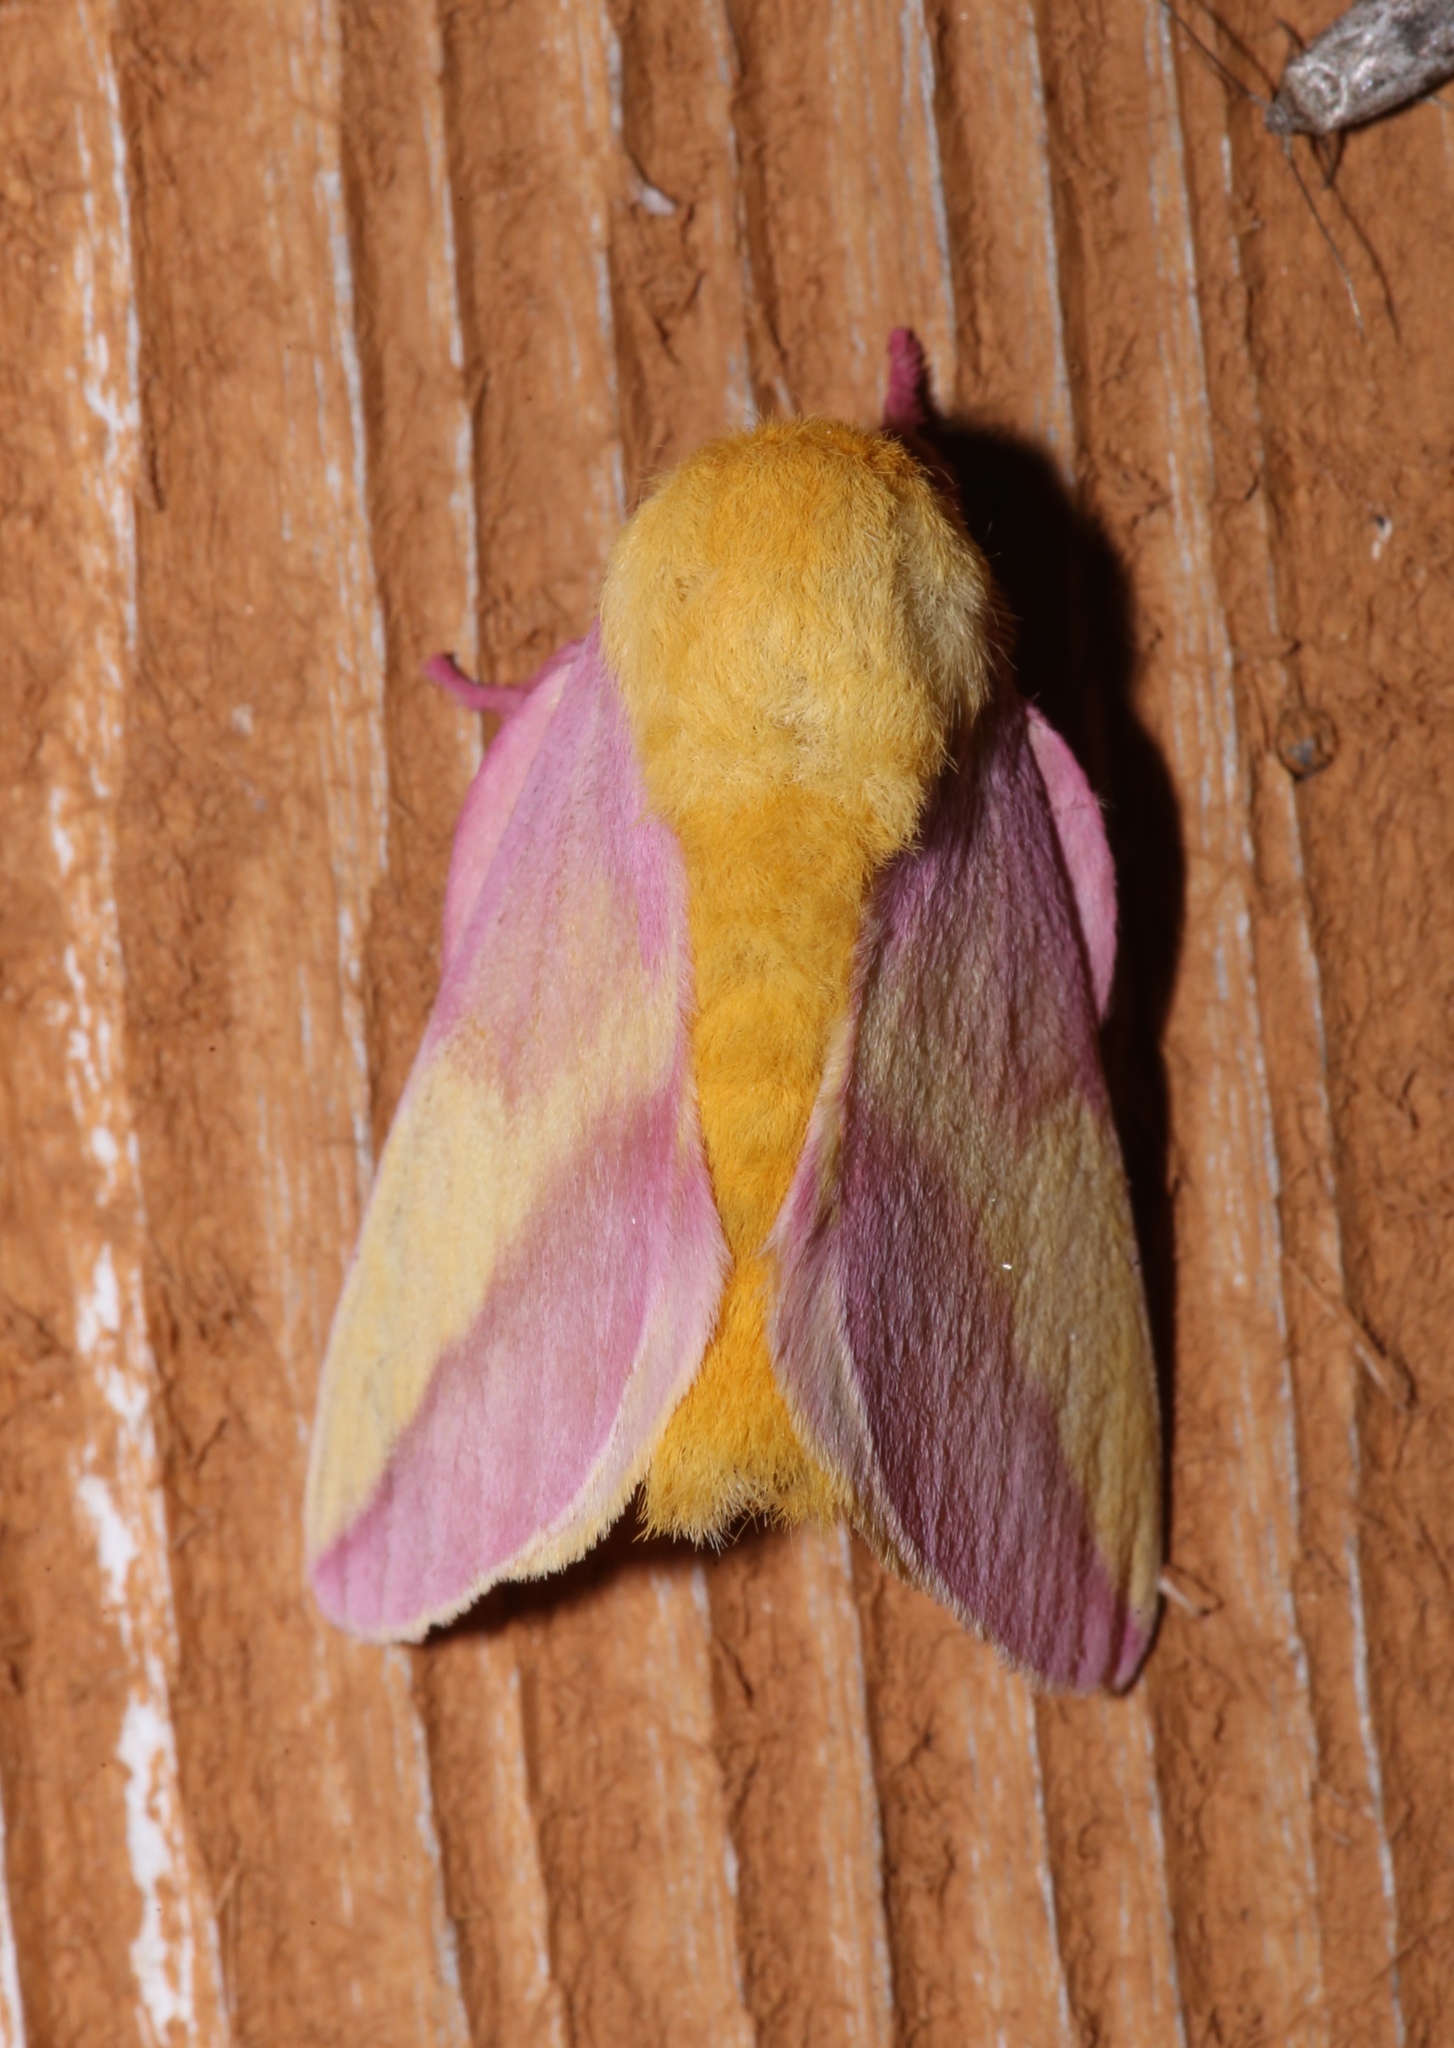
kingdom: Animalia
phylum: Arthropoda
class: Insecta
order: Lepidoptera
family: Saturniidae
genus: Dryocampa
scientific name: Dryocampa rubicunda
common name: Rosy maple moth
